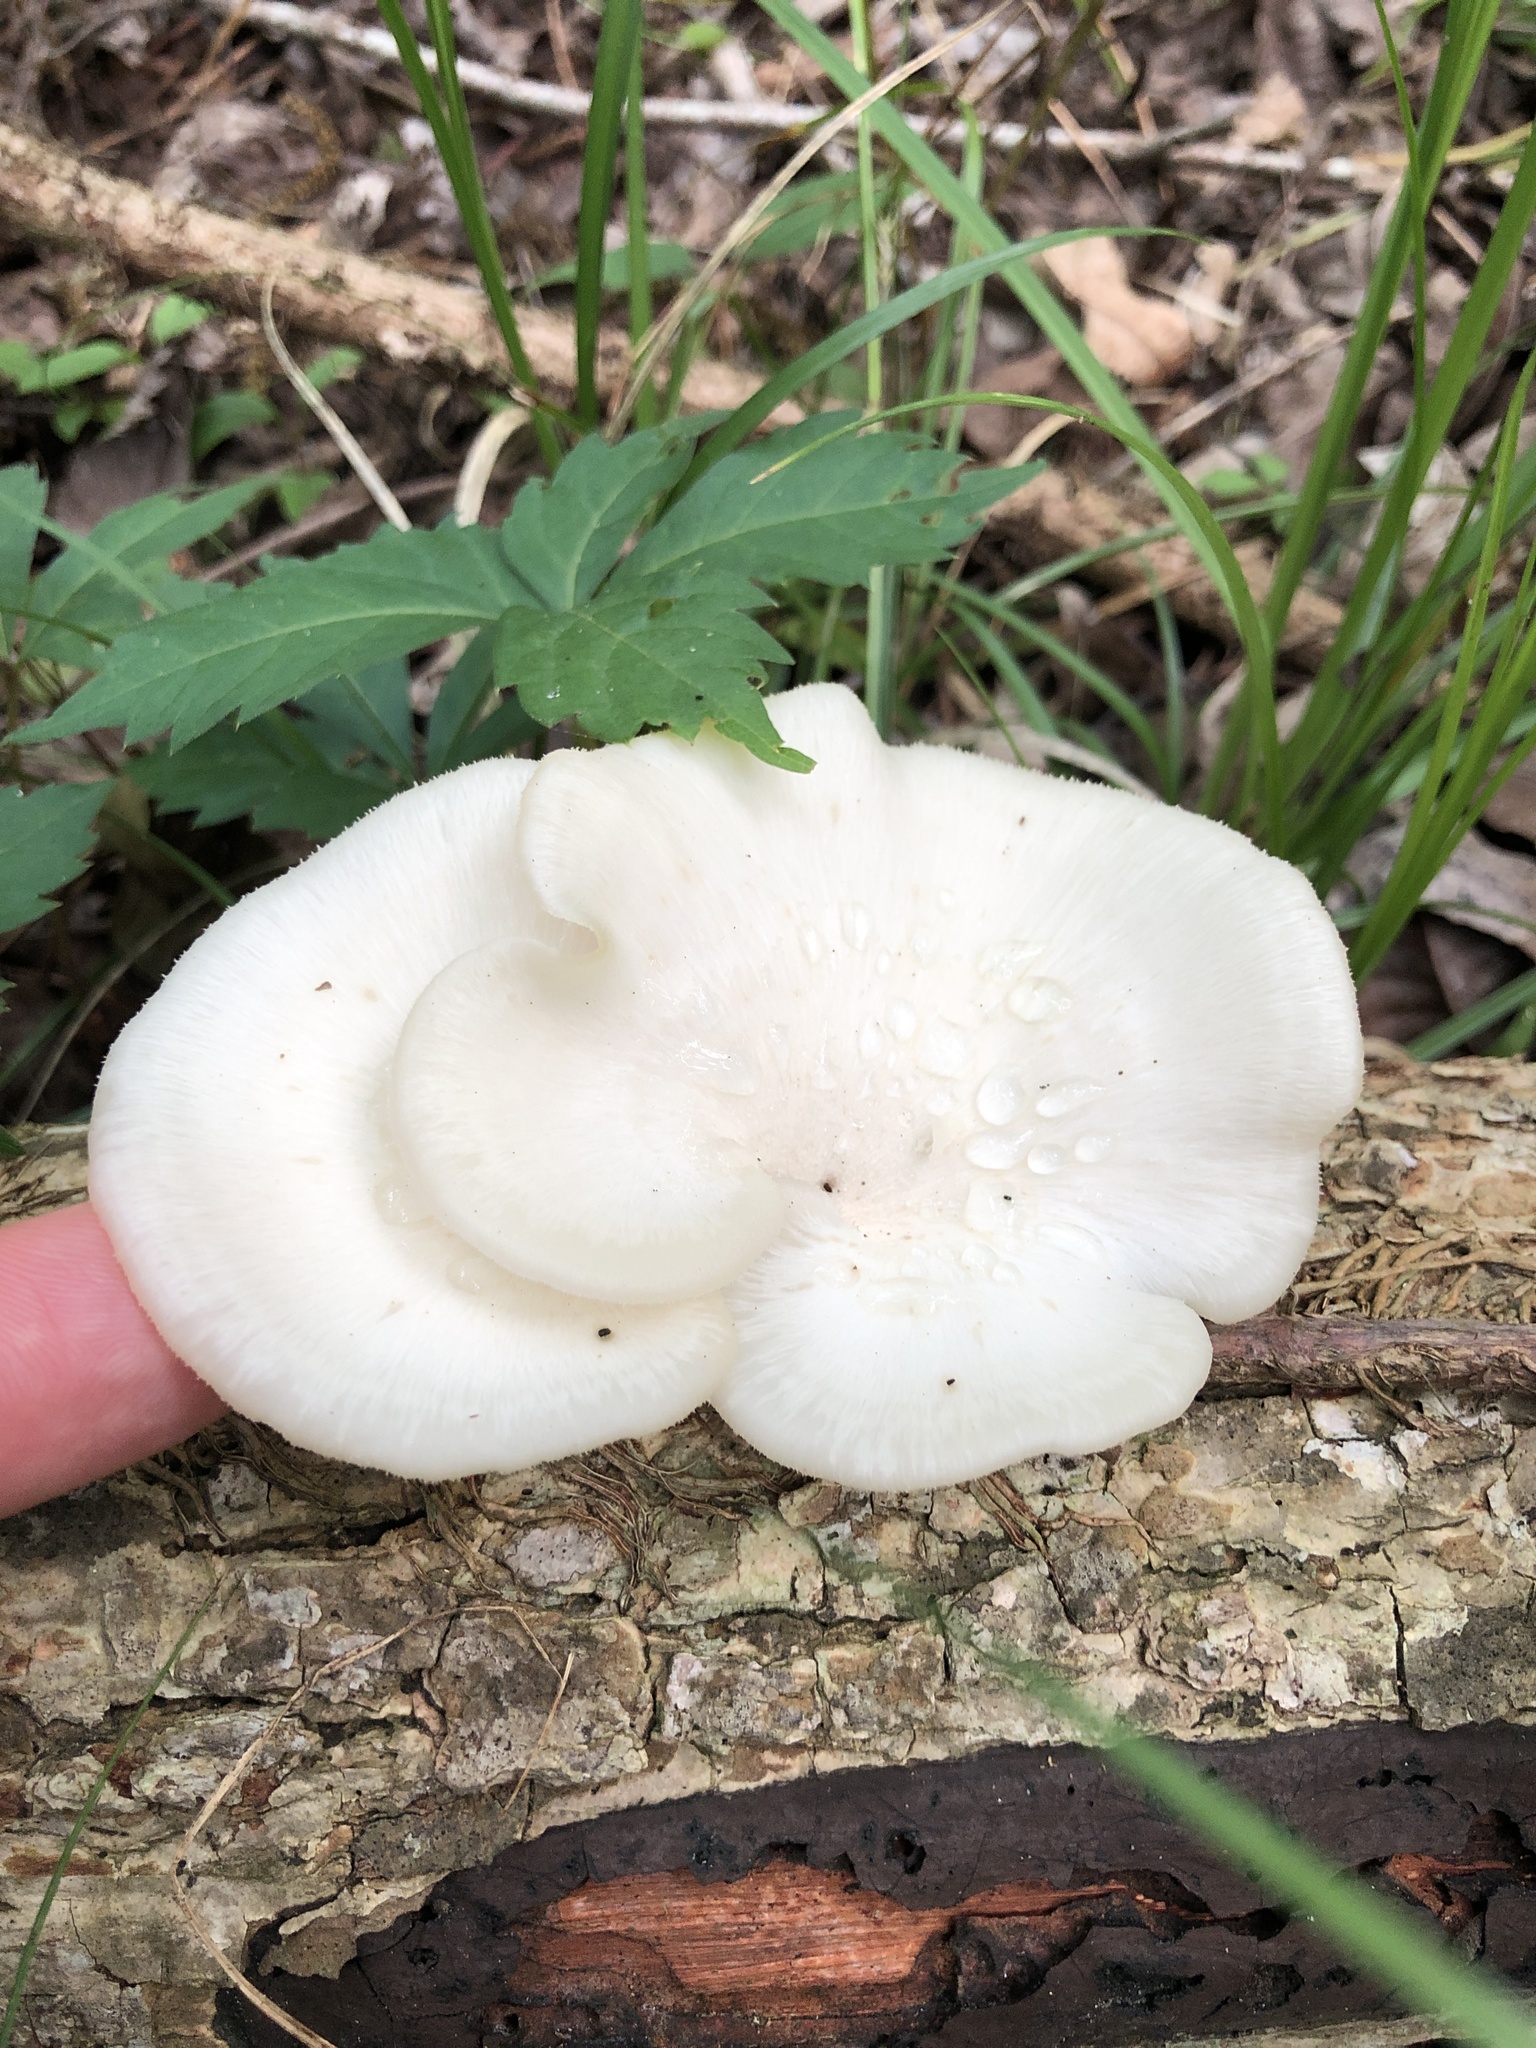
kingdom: Fungi
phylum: Basidiomycota
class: Agaricomycetes
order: Polyporales
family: Polyporaceae
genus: Favolus
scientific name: Favolus tenuiculus
